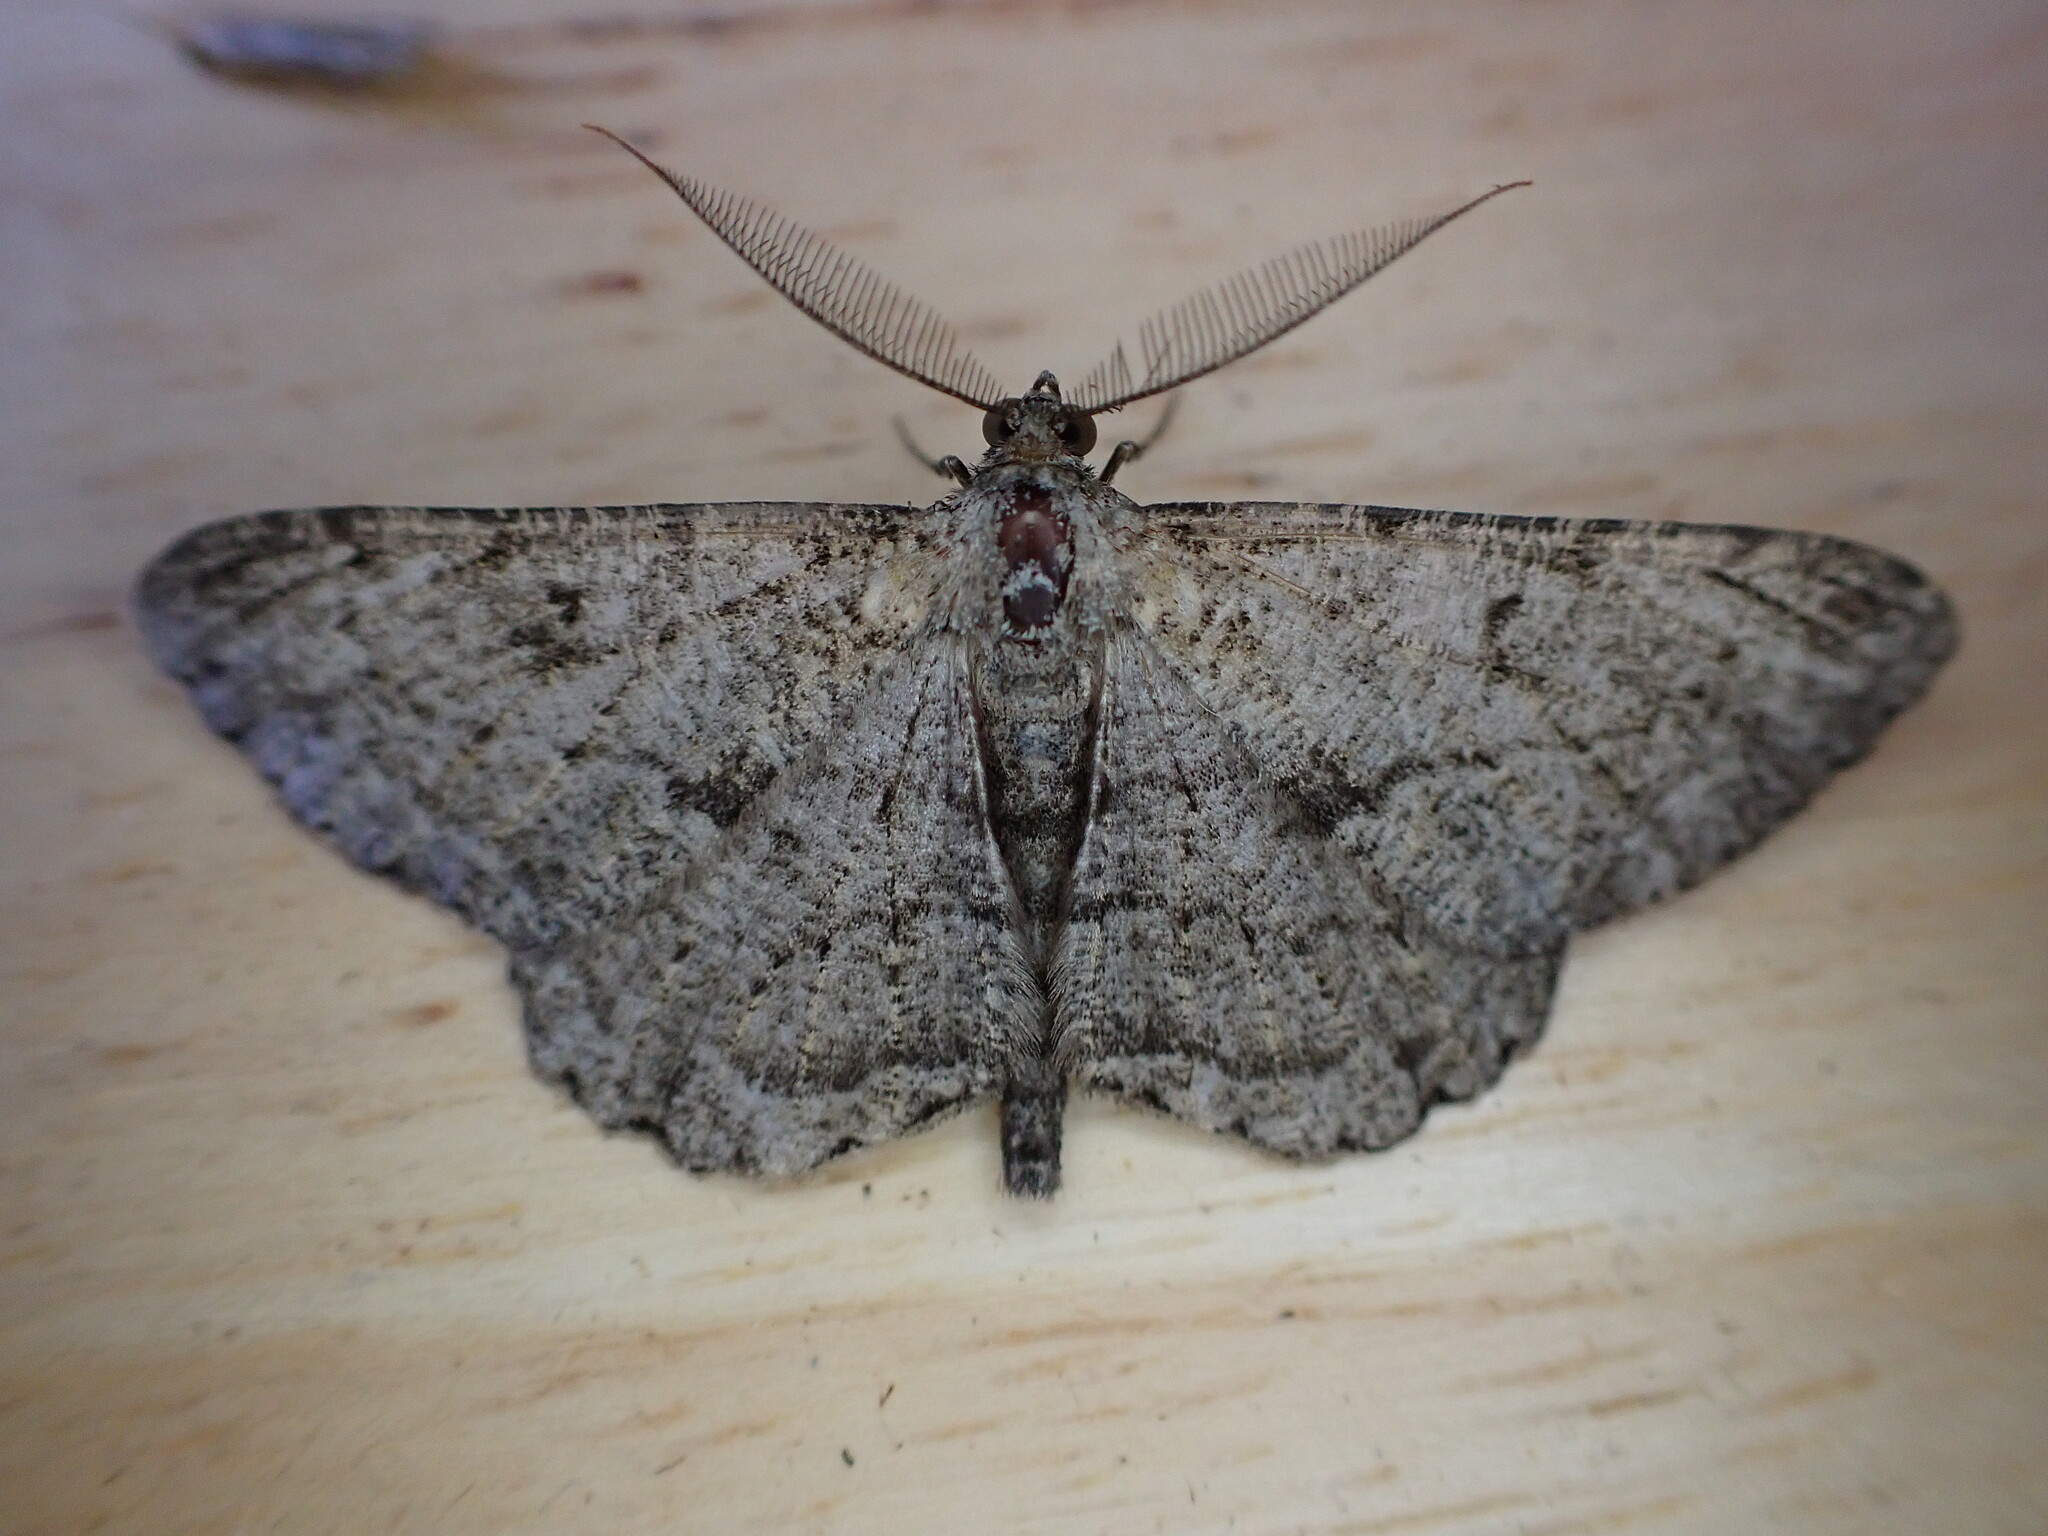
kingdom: Animalia
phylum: Arthropoda
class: Insecta
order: Lepidoptera
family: Geometridae
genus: Peribatodes
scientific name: Peribatodes rhomboidaria
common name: Willow beauty
